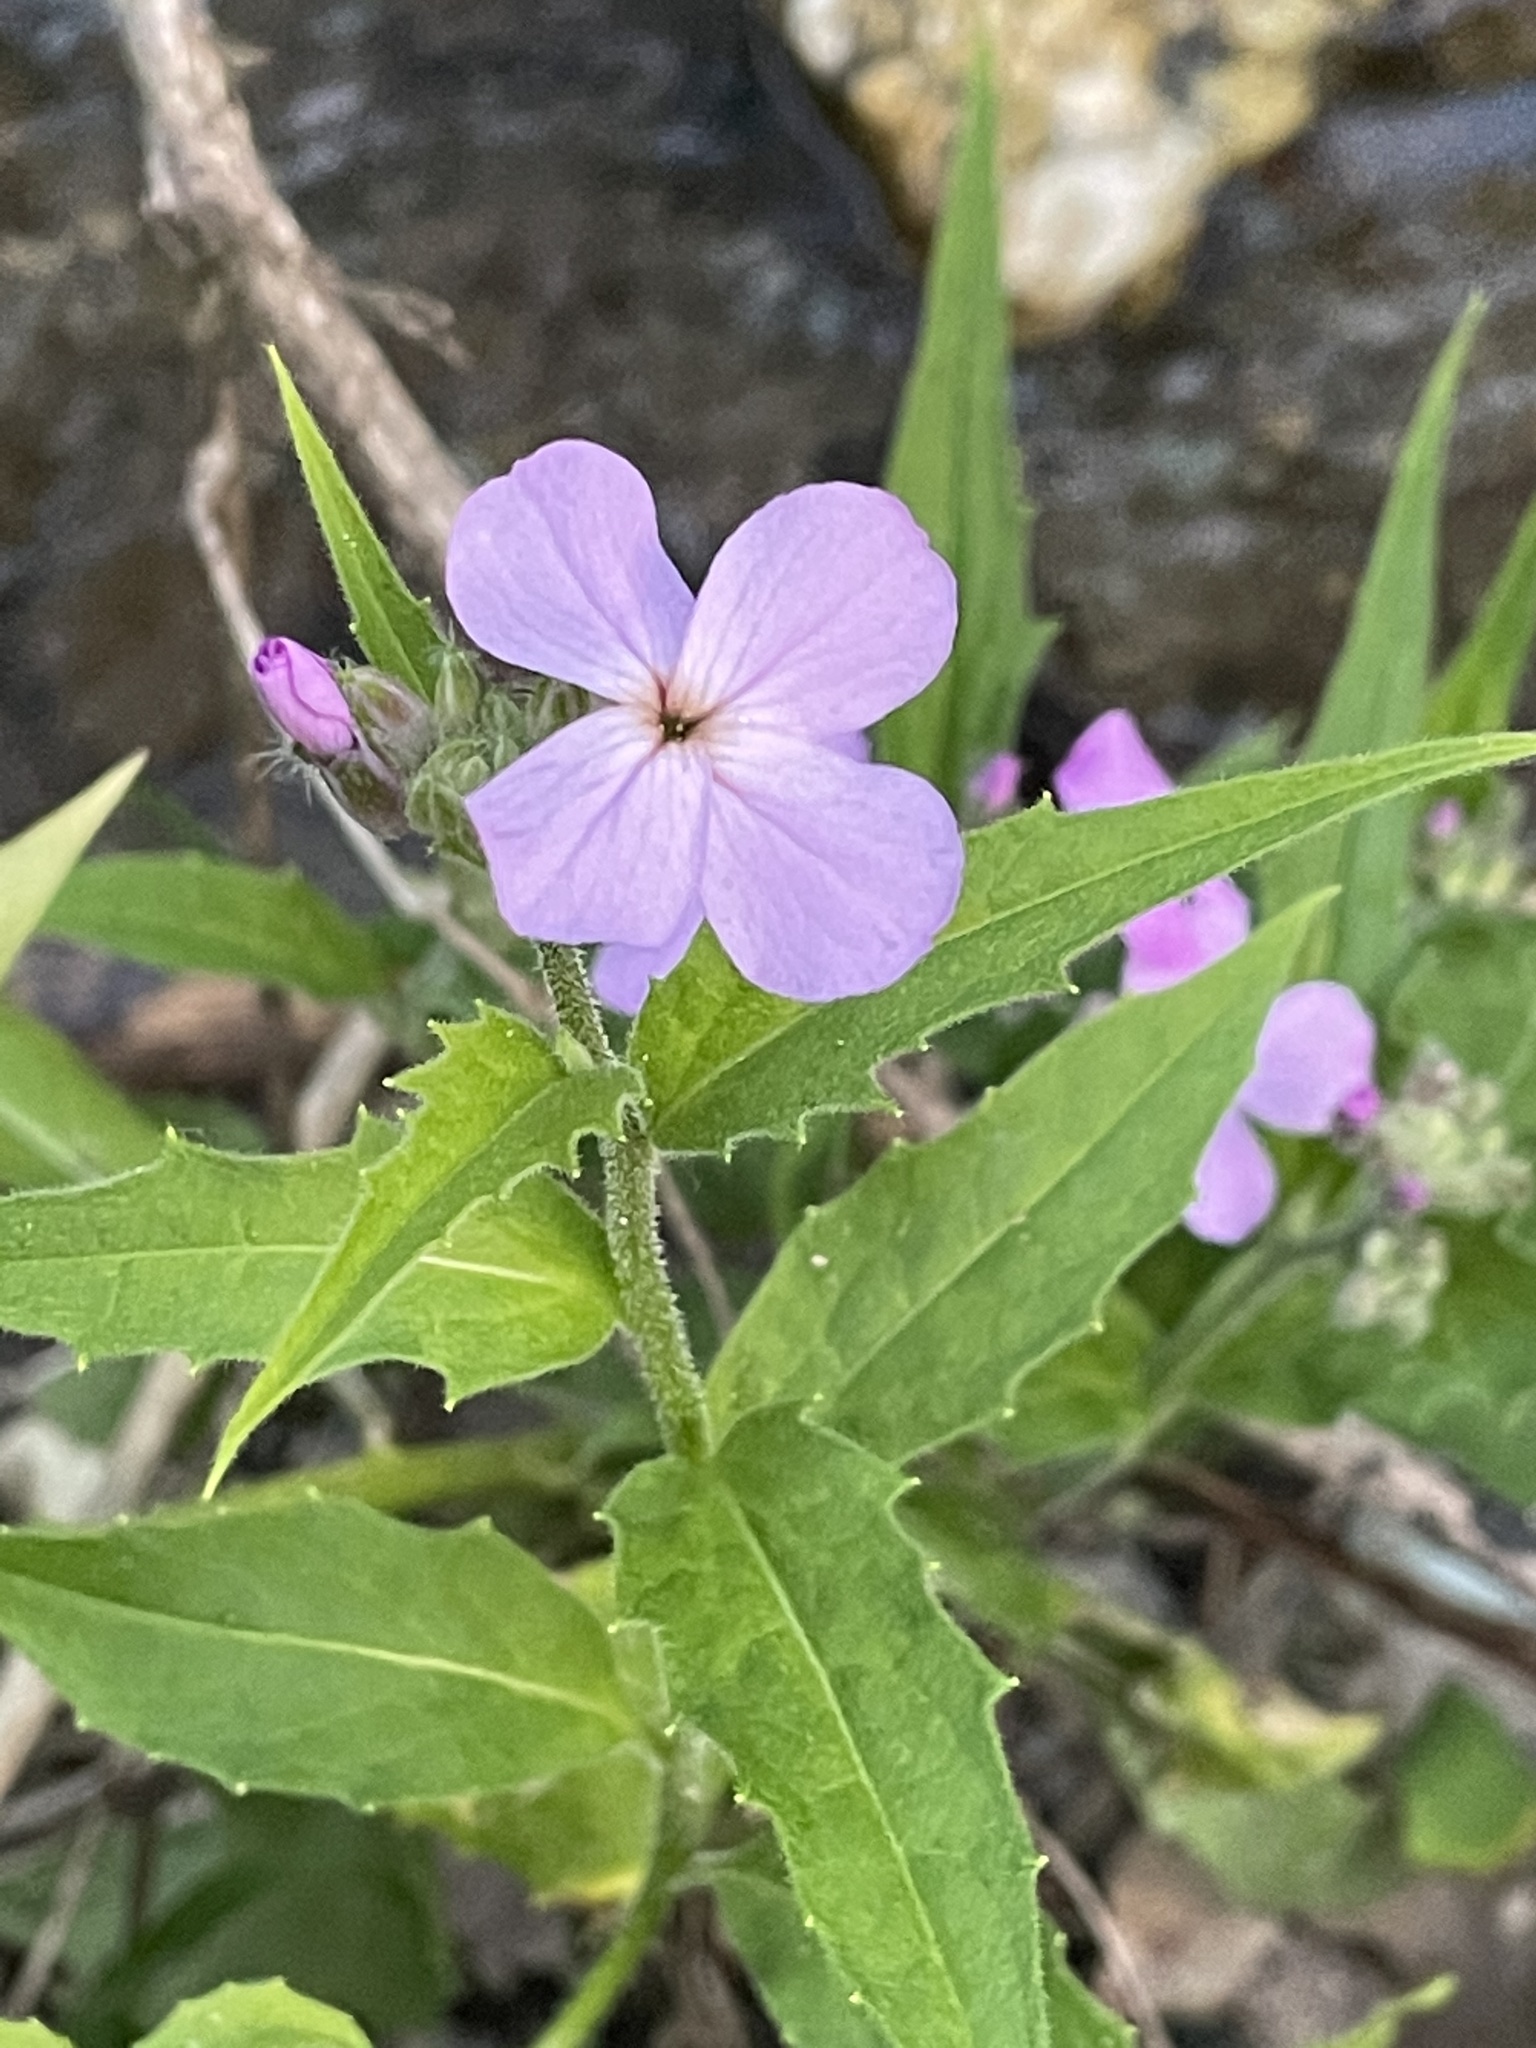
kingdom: Plantae
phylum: Tracheophyta
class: Magnoliopsida
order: Brassicales
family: Brassicaceae
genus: Hesperis
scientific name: Hesperis matronalis
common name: Dame's-violet
